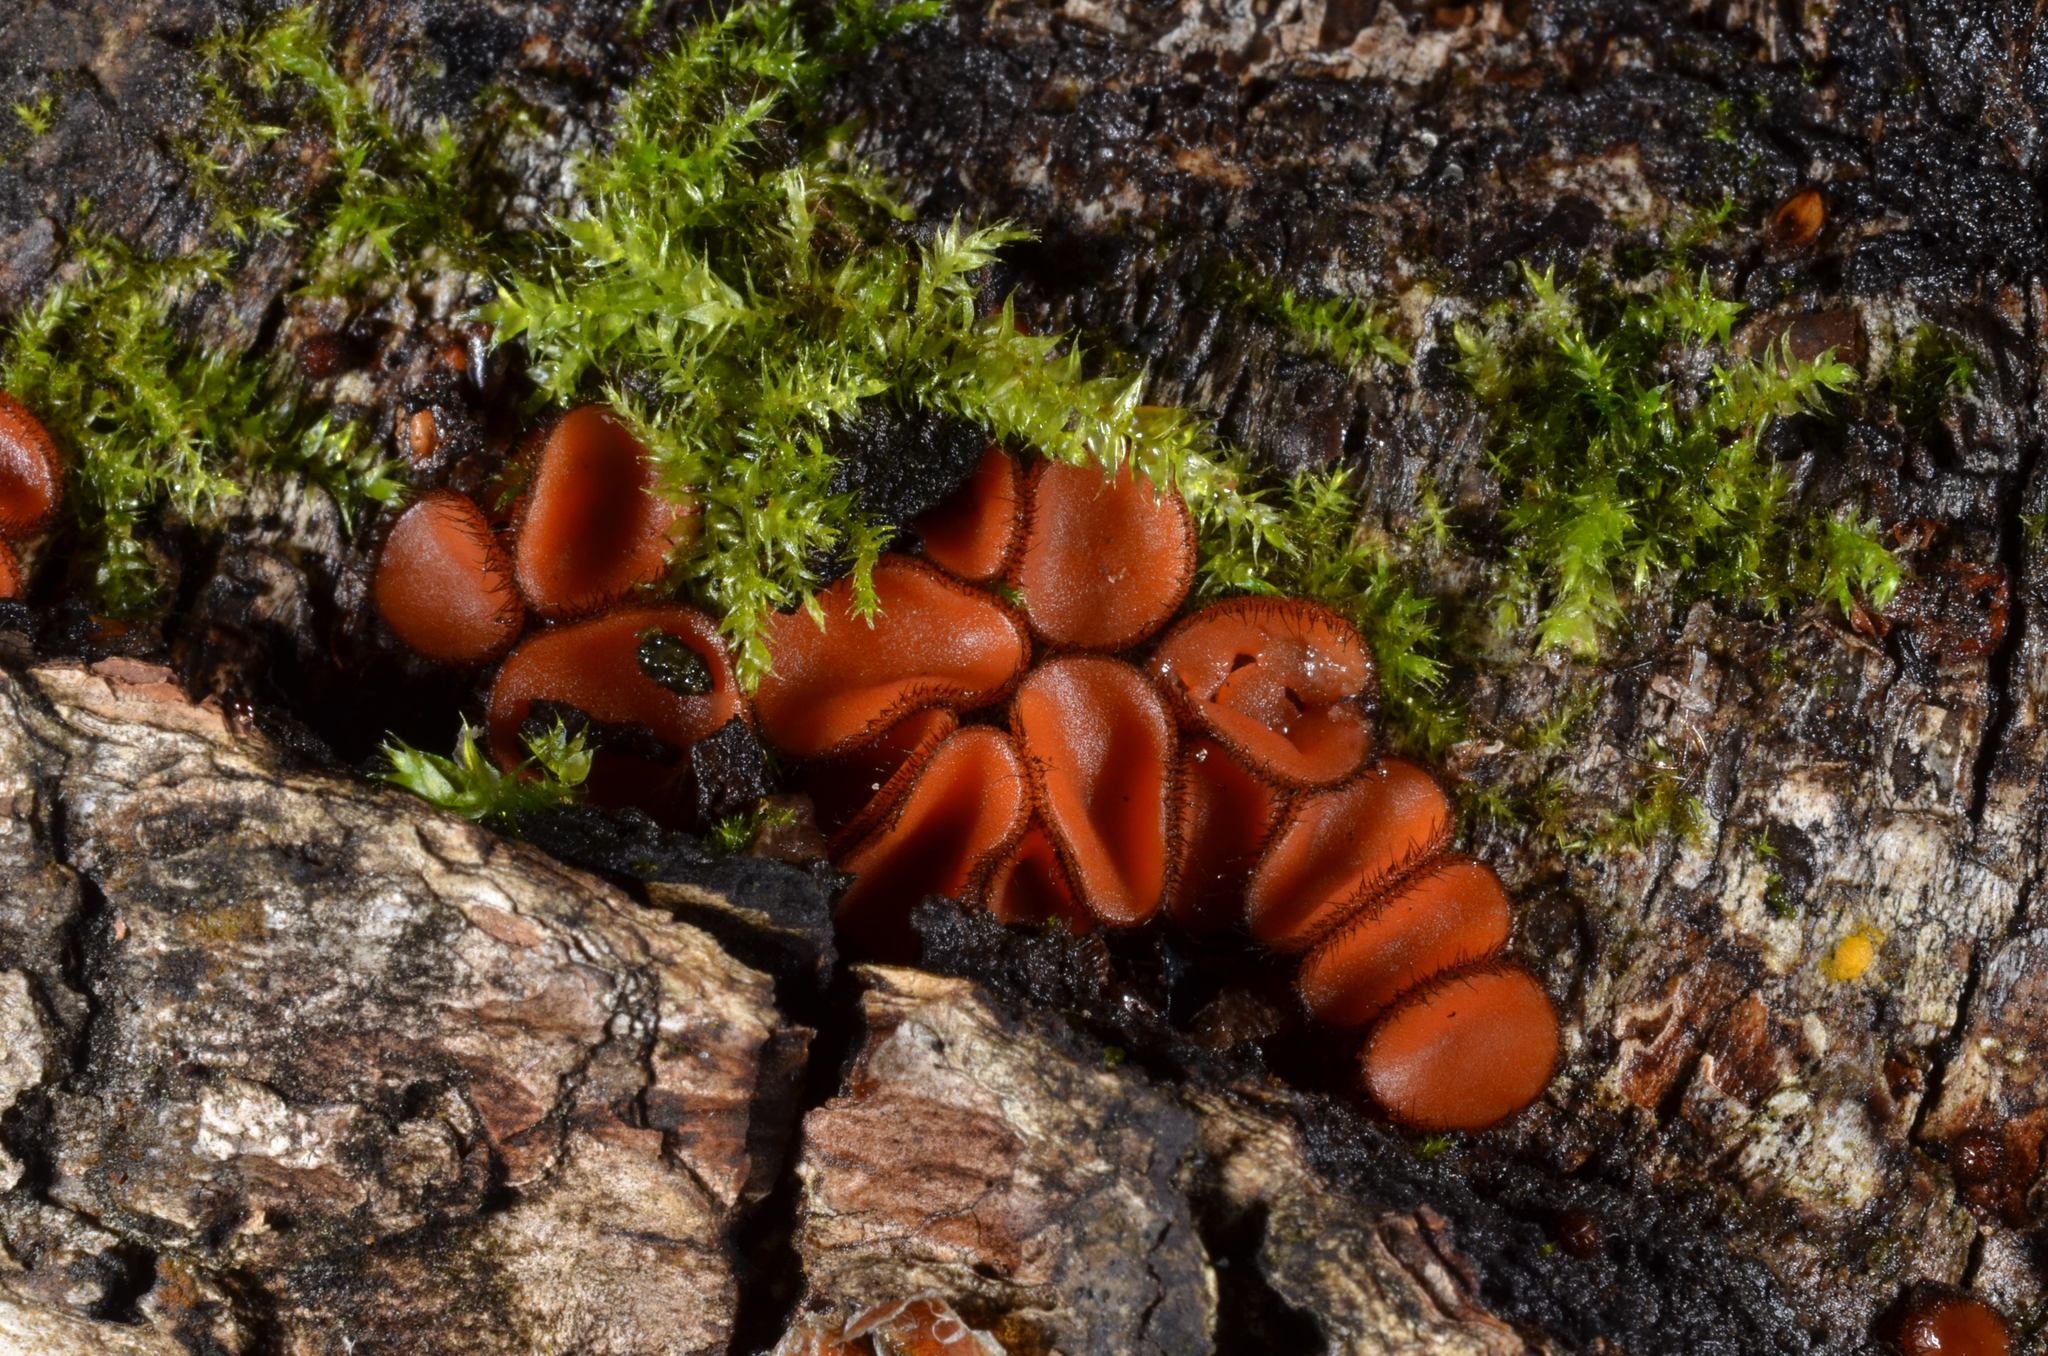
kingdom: Fungi
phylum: Ascomycota
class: Pezizomycetes
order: Pezizales
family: Pyronemataceae
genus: Scutellinia
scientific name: Scutellinia crinita
